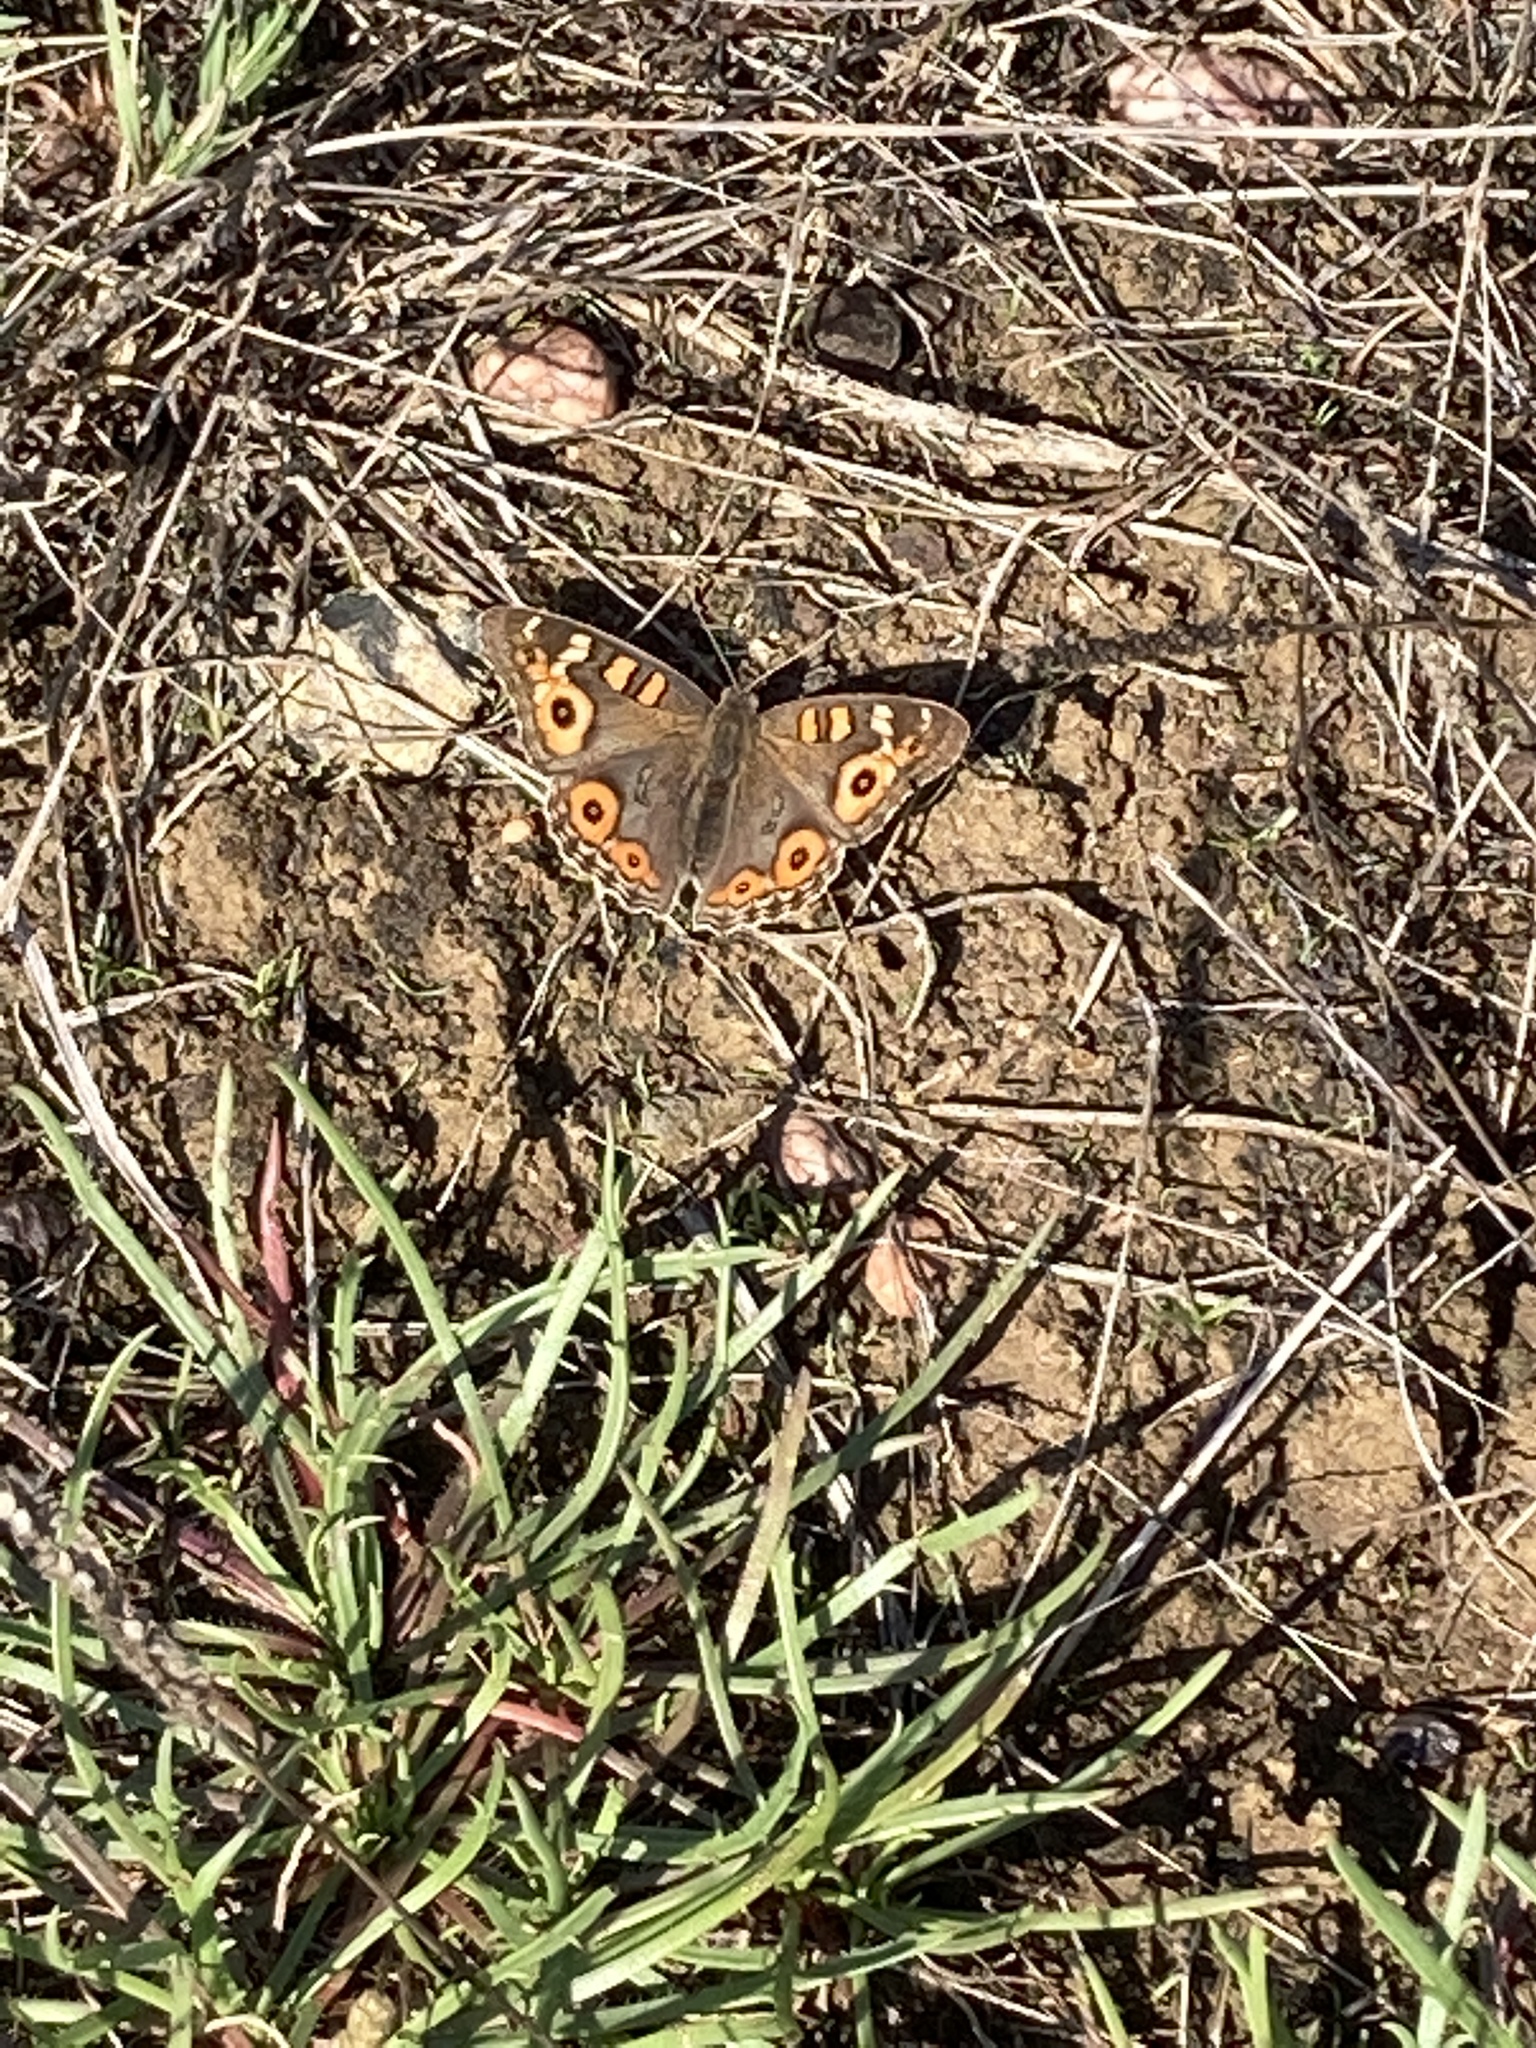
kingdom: Animalia
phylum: Arthropoda
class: Insecta
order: Lepidoptera
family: Nymphalidae
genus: Junonia
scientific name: Junonia villida
